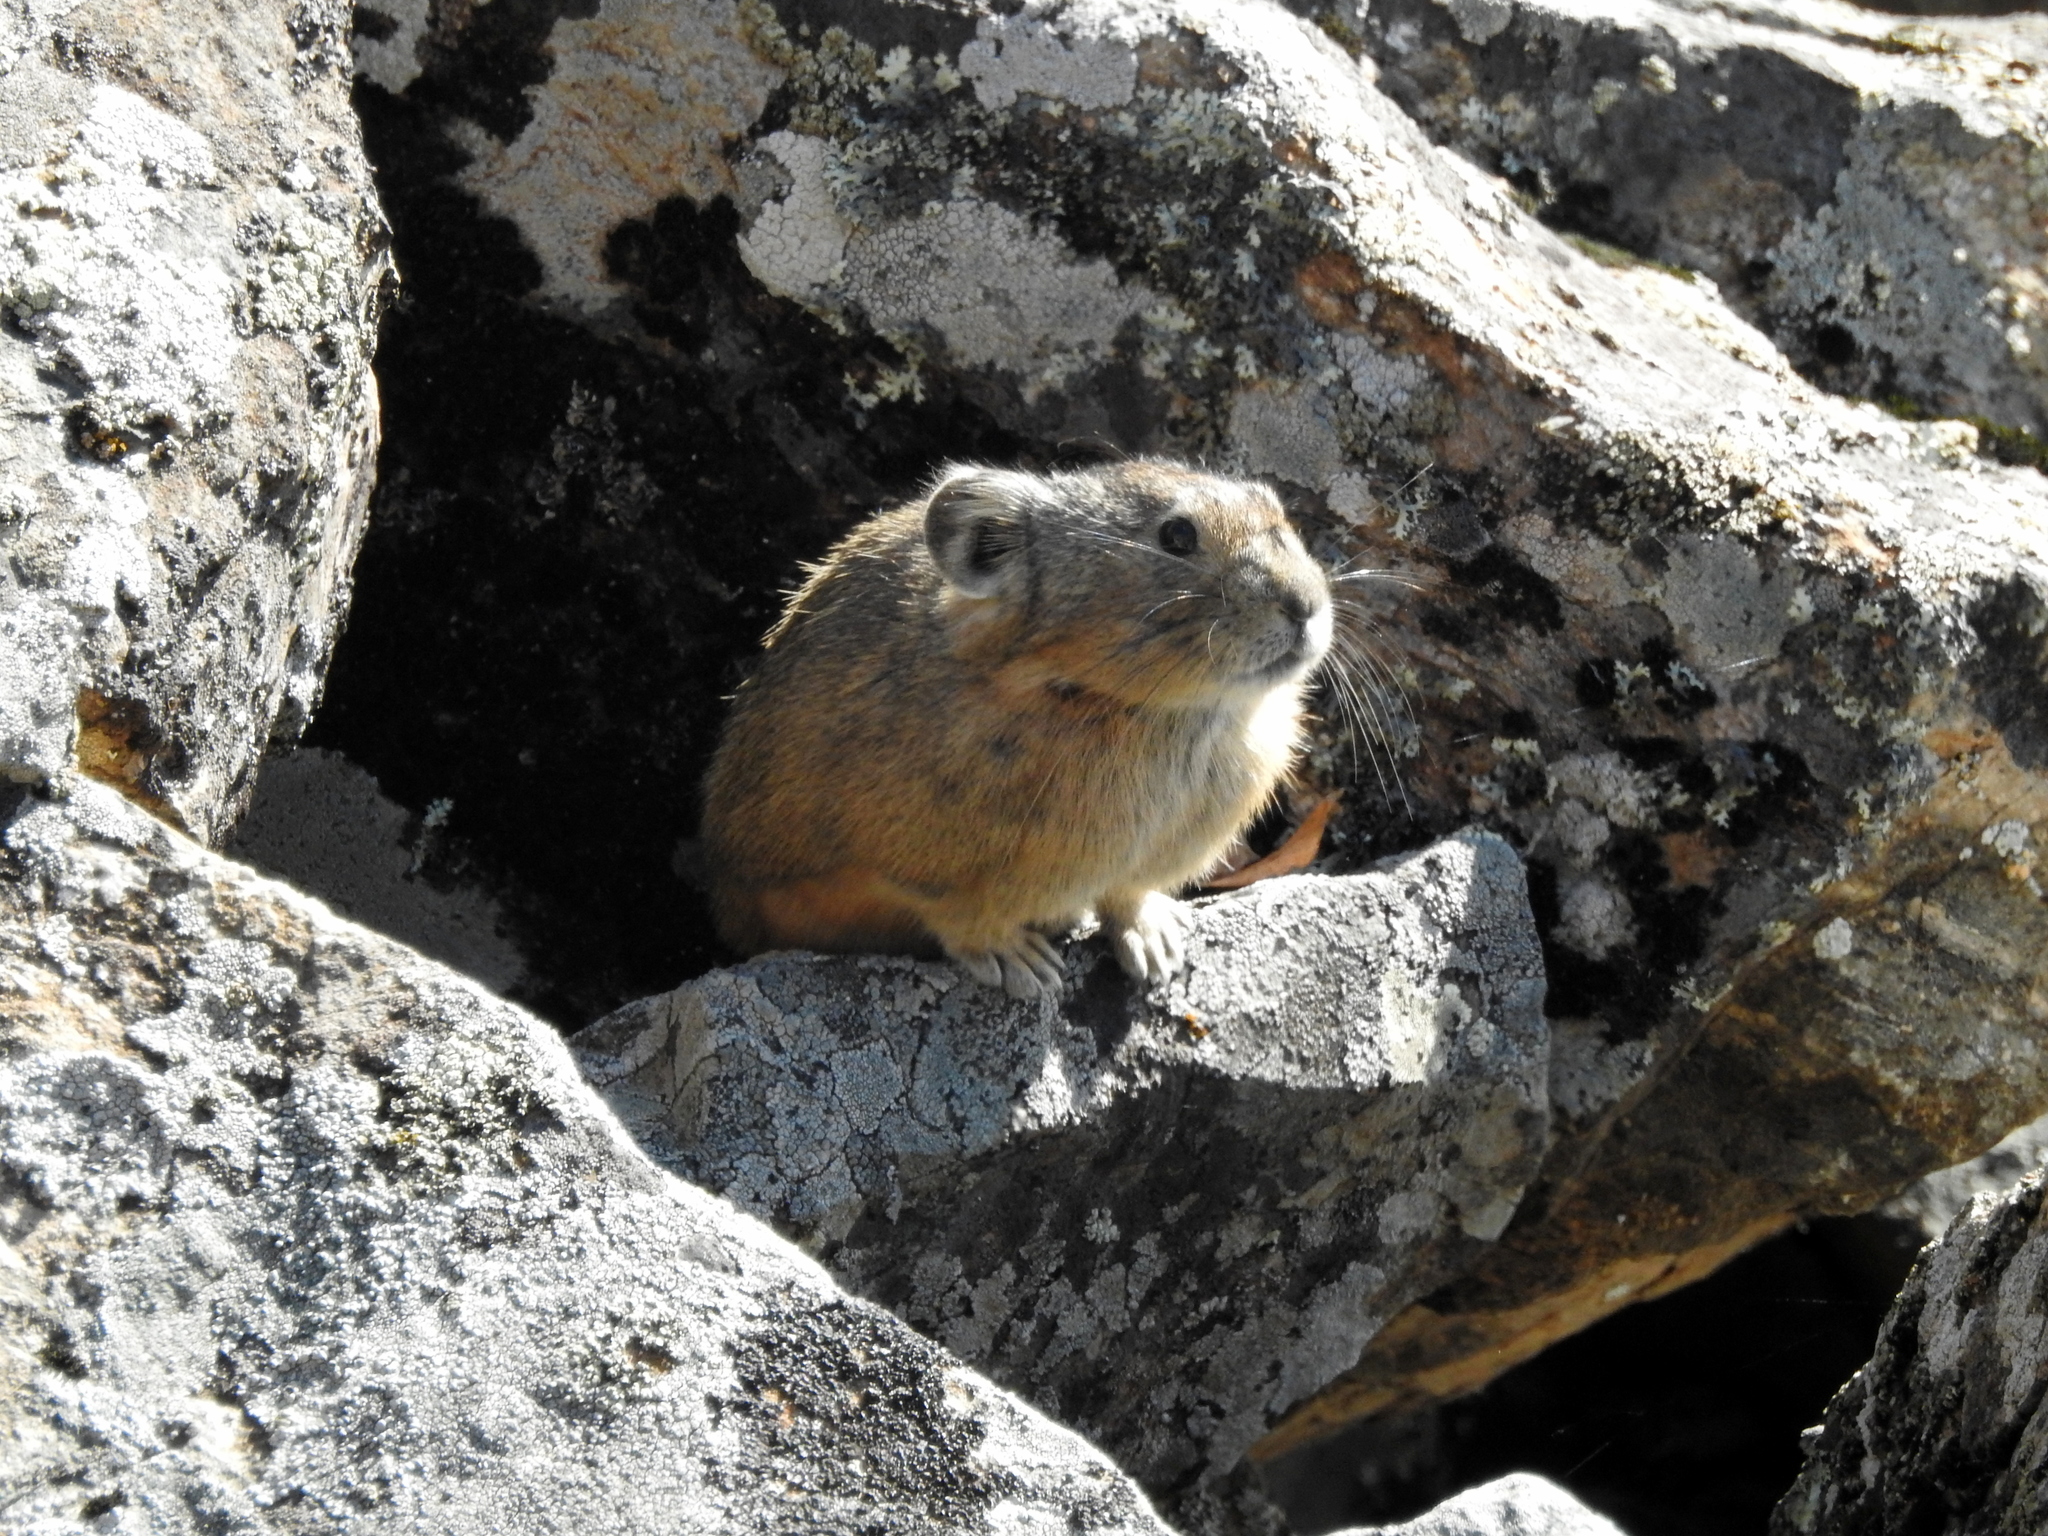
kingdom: Animalia
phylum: Chordata
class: Mammalia
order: Lagomorpha
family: Ochotonidae
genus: Ochotona
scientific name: Ochotona mantchurica
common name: Manchurian pika
